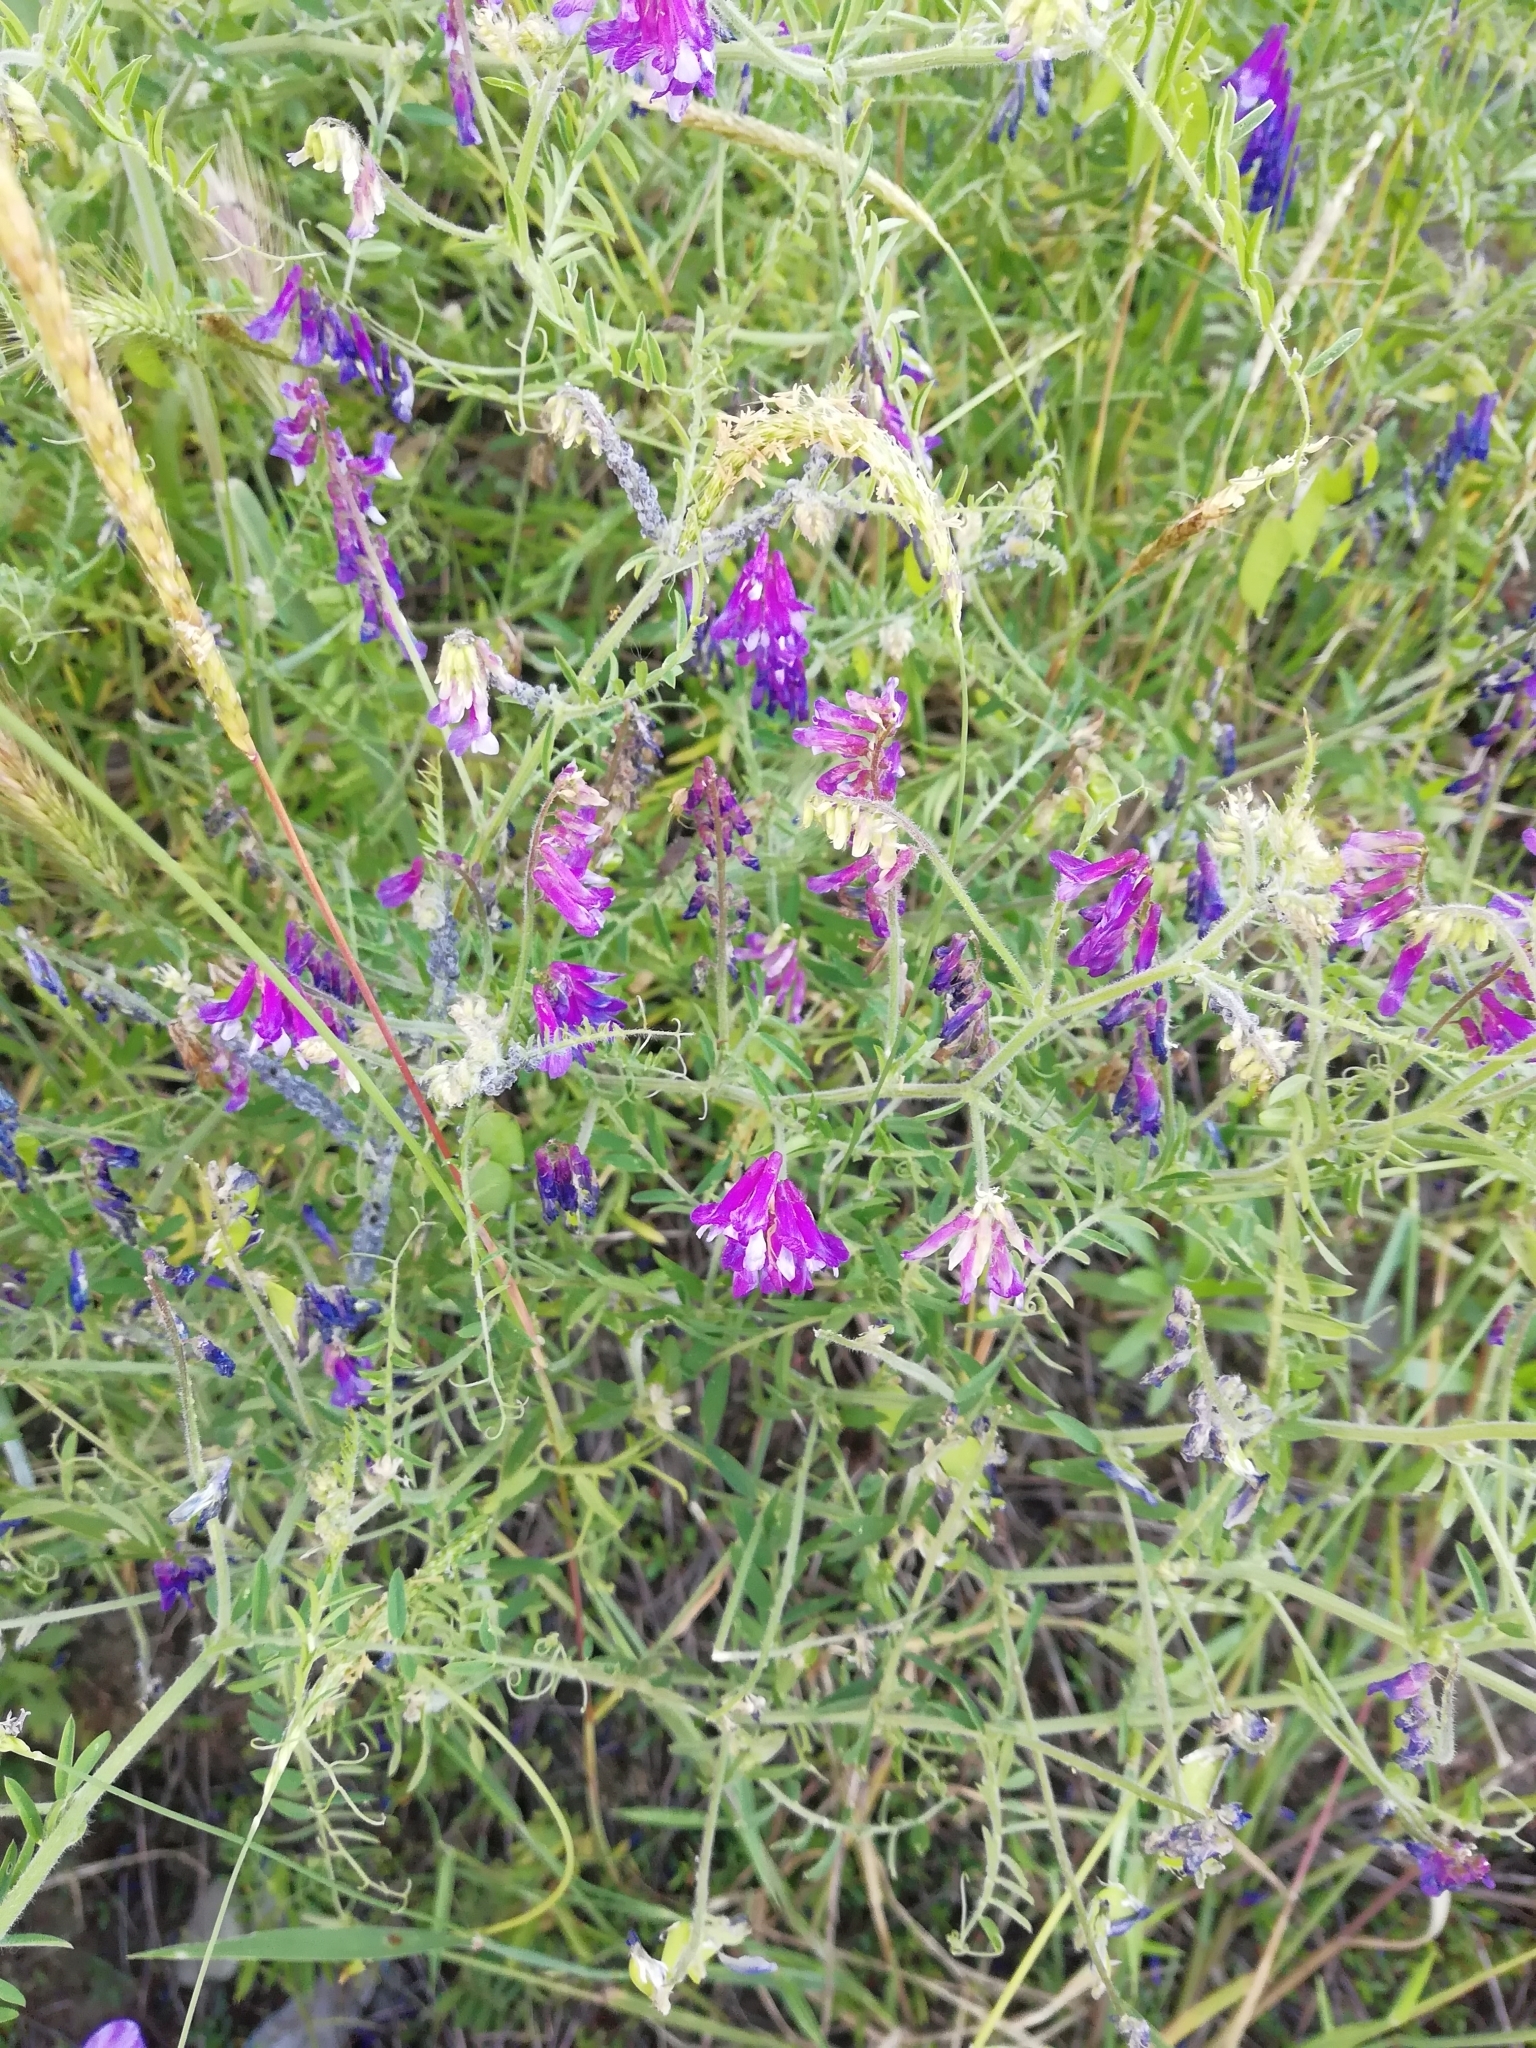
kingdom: Plantae
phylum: Tracheophyta
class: Magnoliopsida
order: Fabales
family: Fabaceae
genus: Vicia
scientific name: Vicia villosa
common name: Fodder vetch
